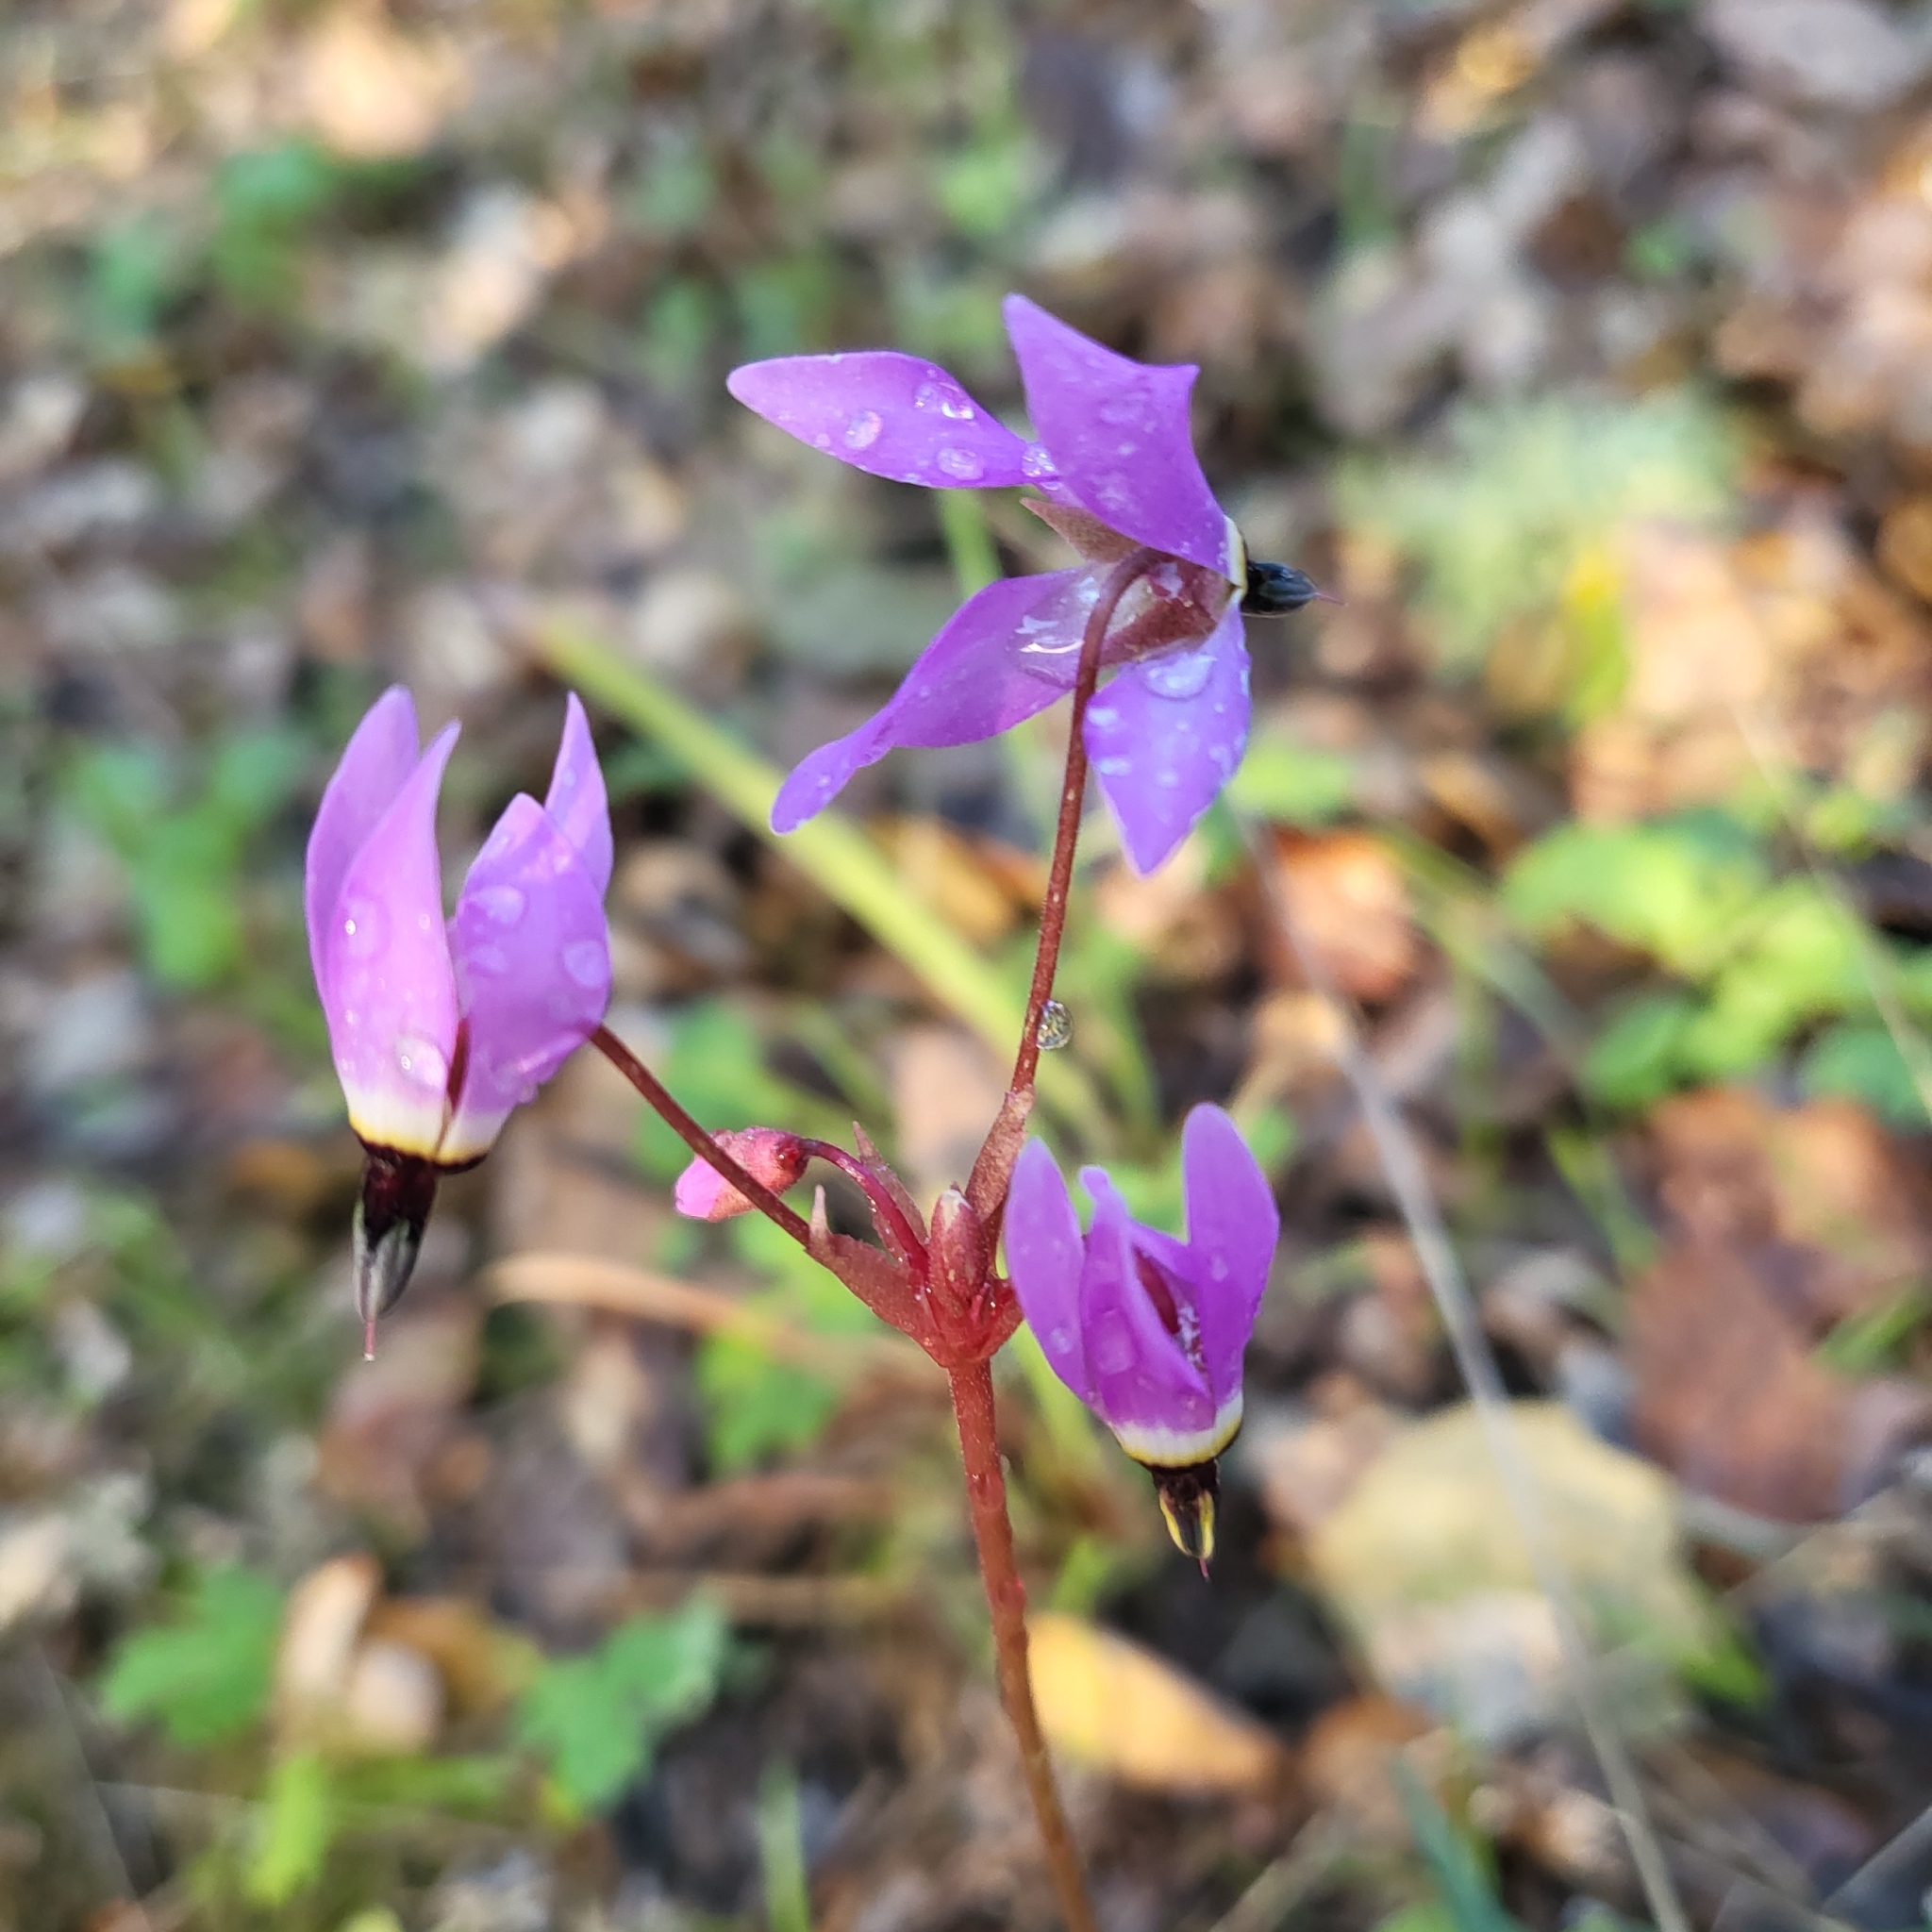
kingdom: Plantae
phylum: Tracheophyta
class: Magnoliopsida
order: Ericales
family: Primulaceae
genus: Dodecatheon
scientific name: Dodecatheon hendersonii
